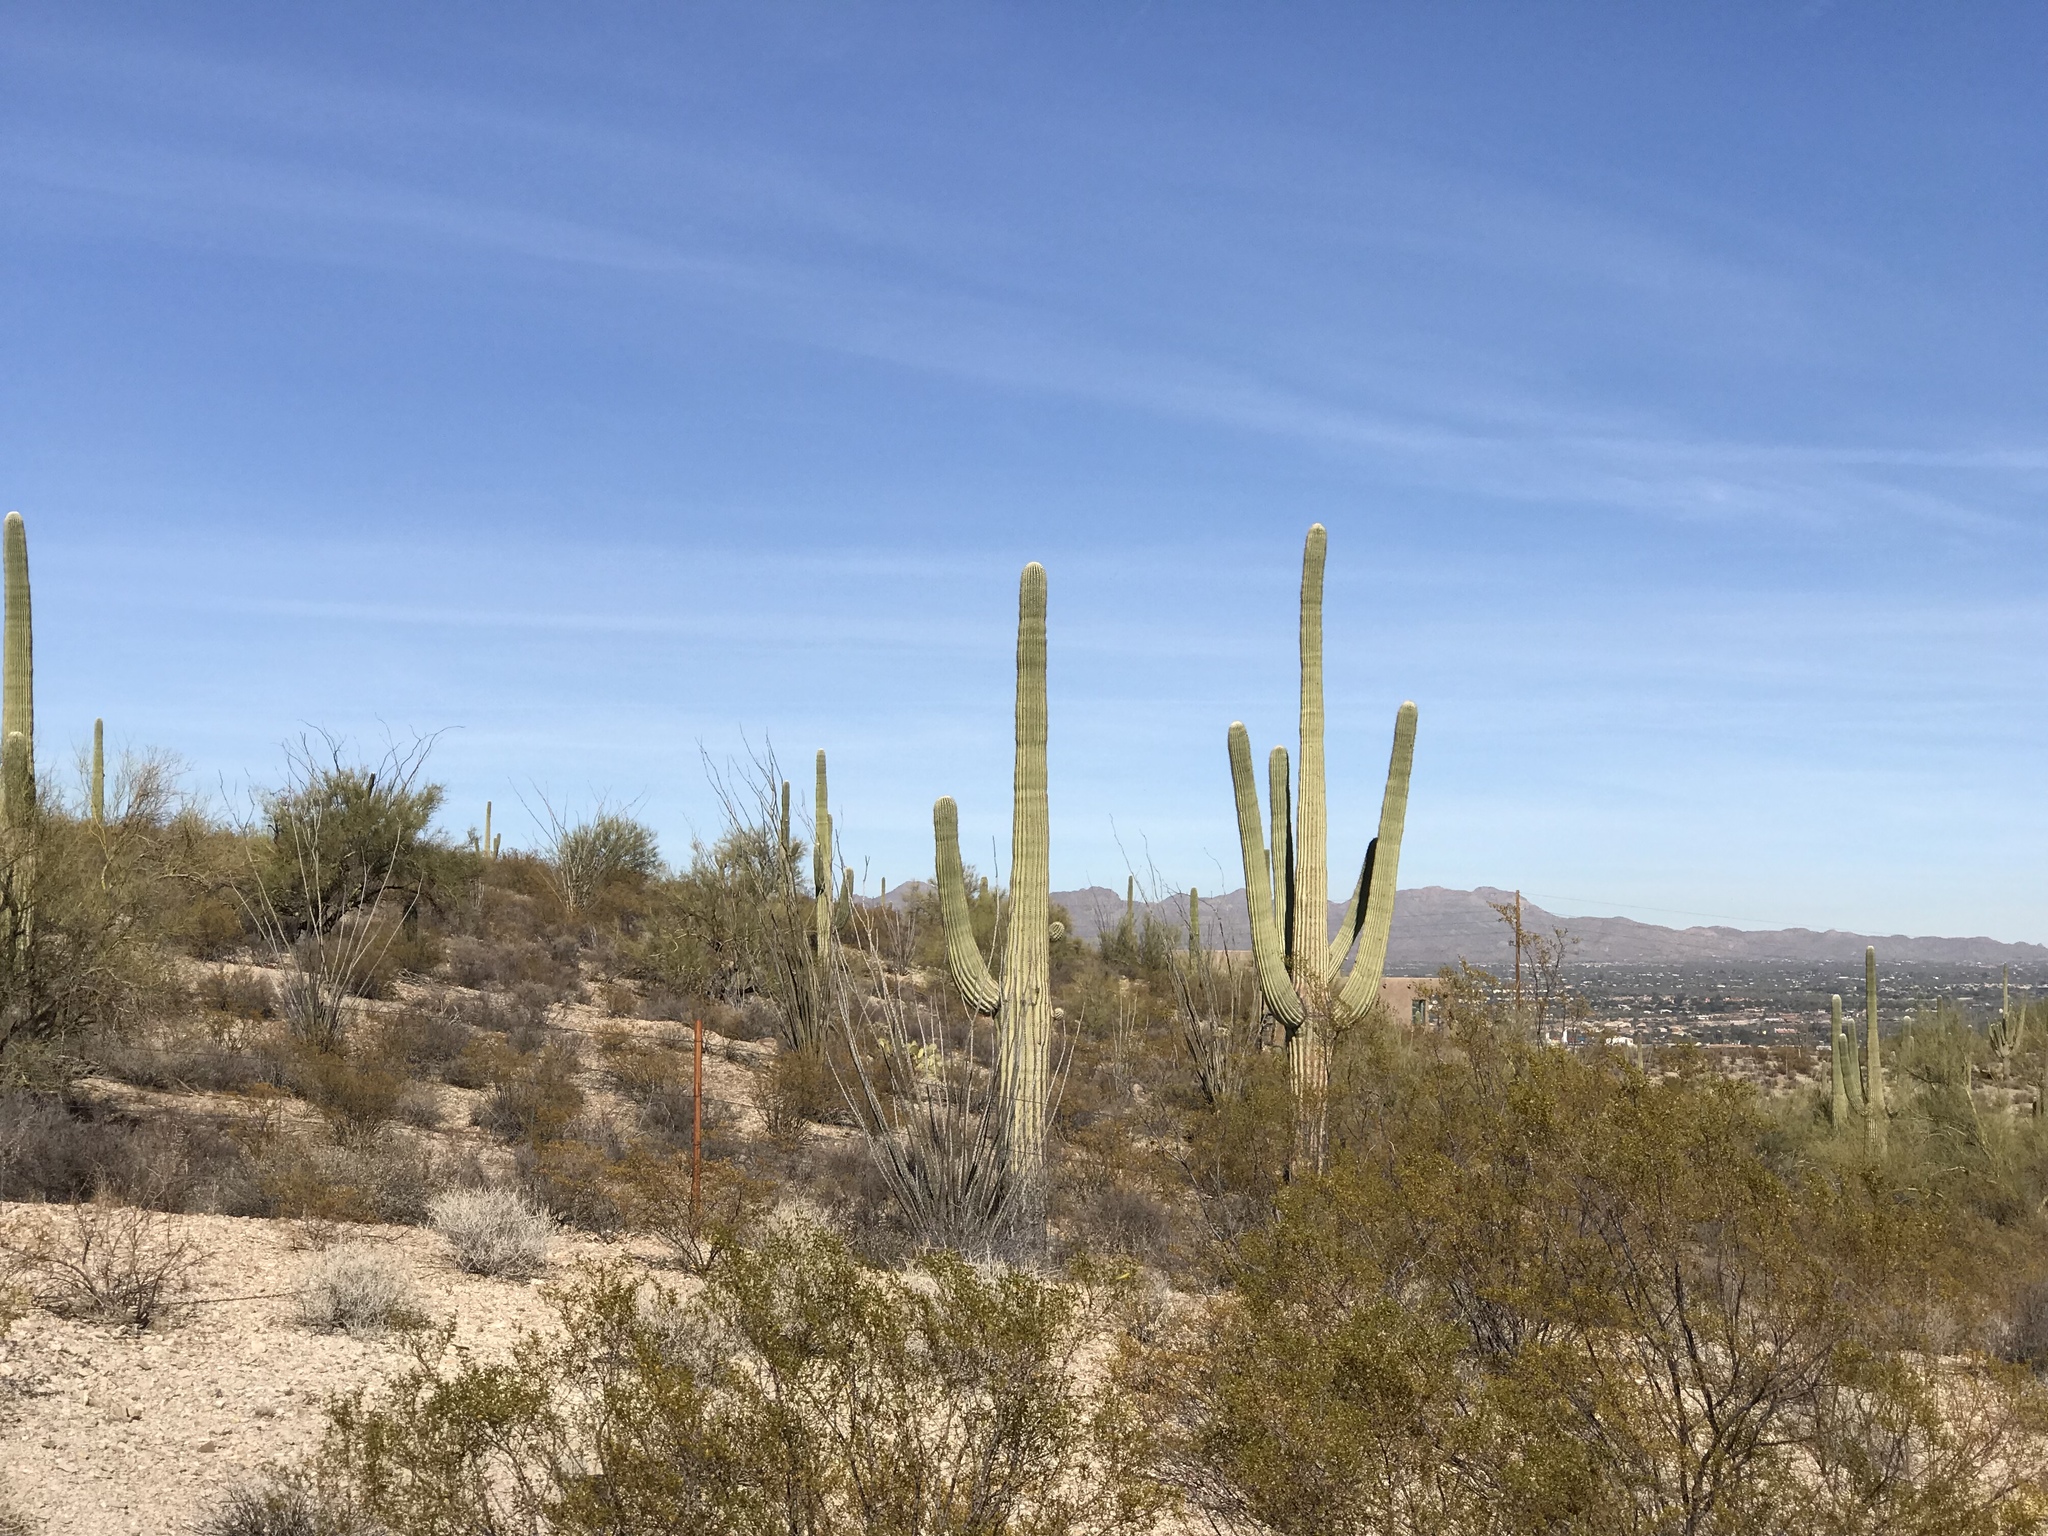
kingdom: Plantae
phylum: Tracheophyta
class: Magnoliopsida
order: Caryophyllales
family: Cactaceae
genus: Carnegiea
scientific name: Carnegiea gigantea
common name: Saguaro
